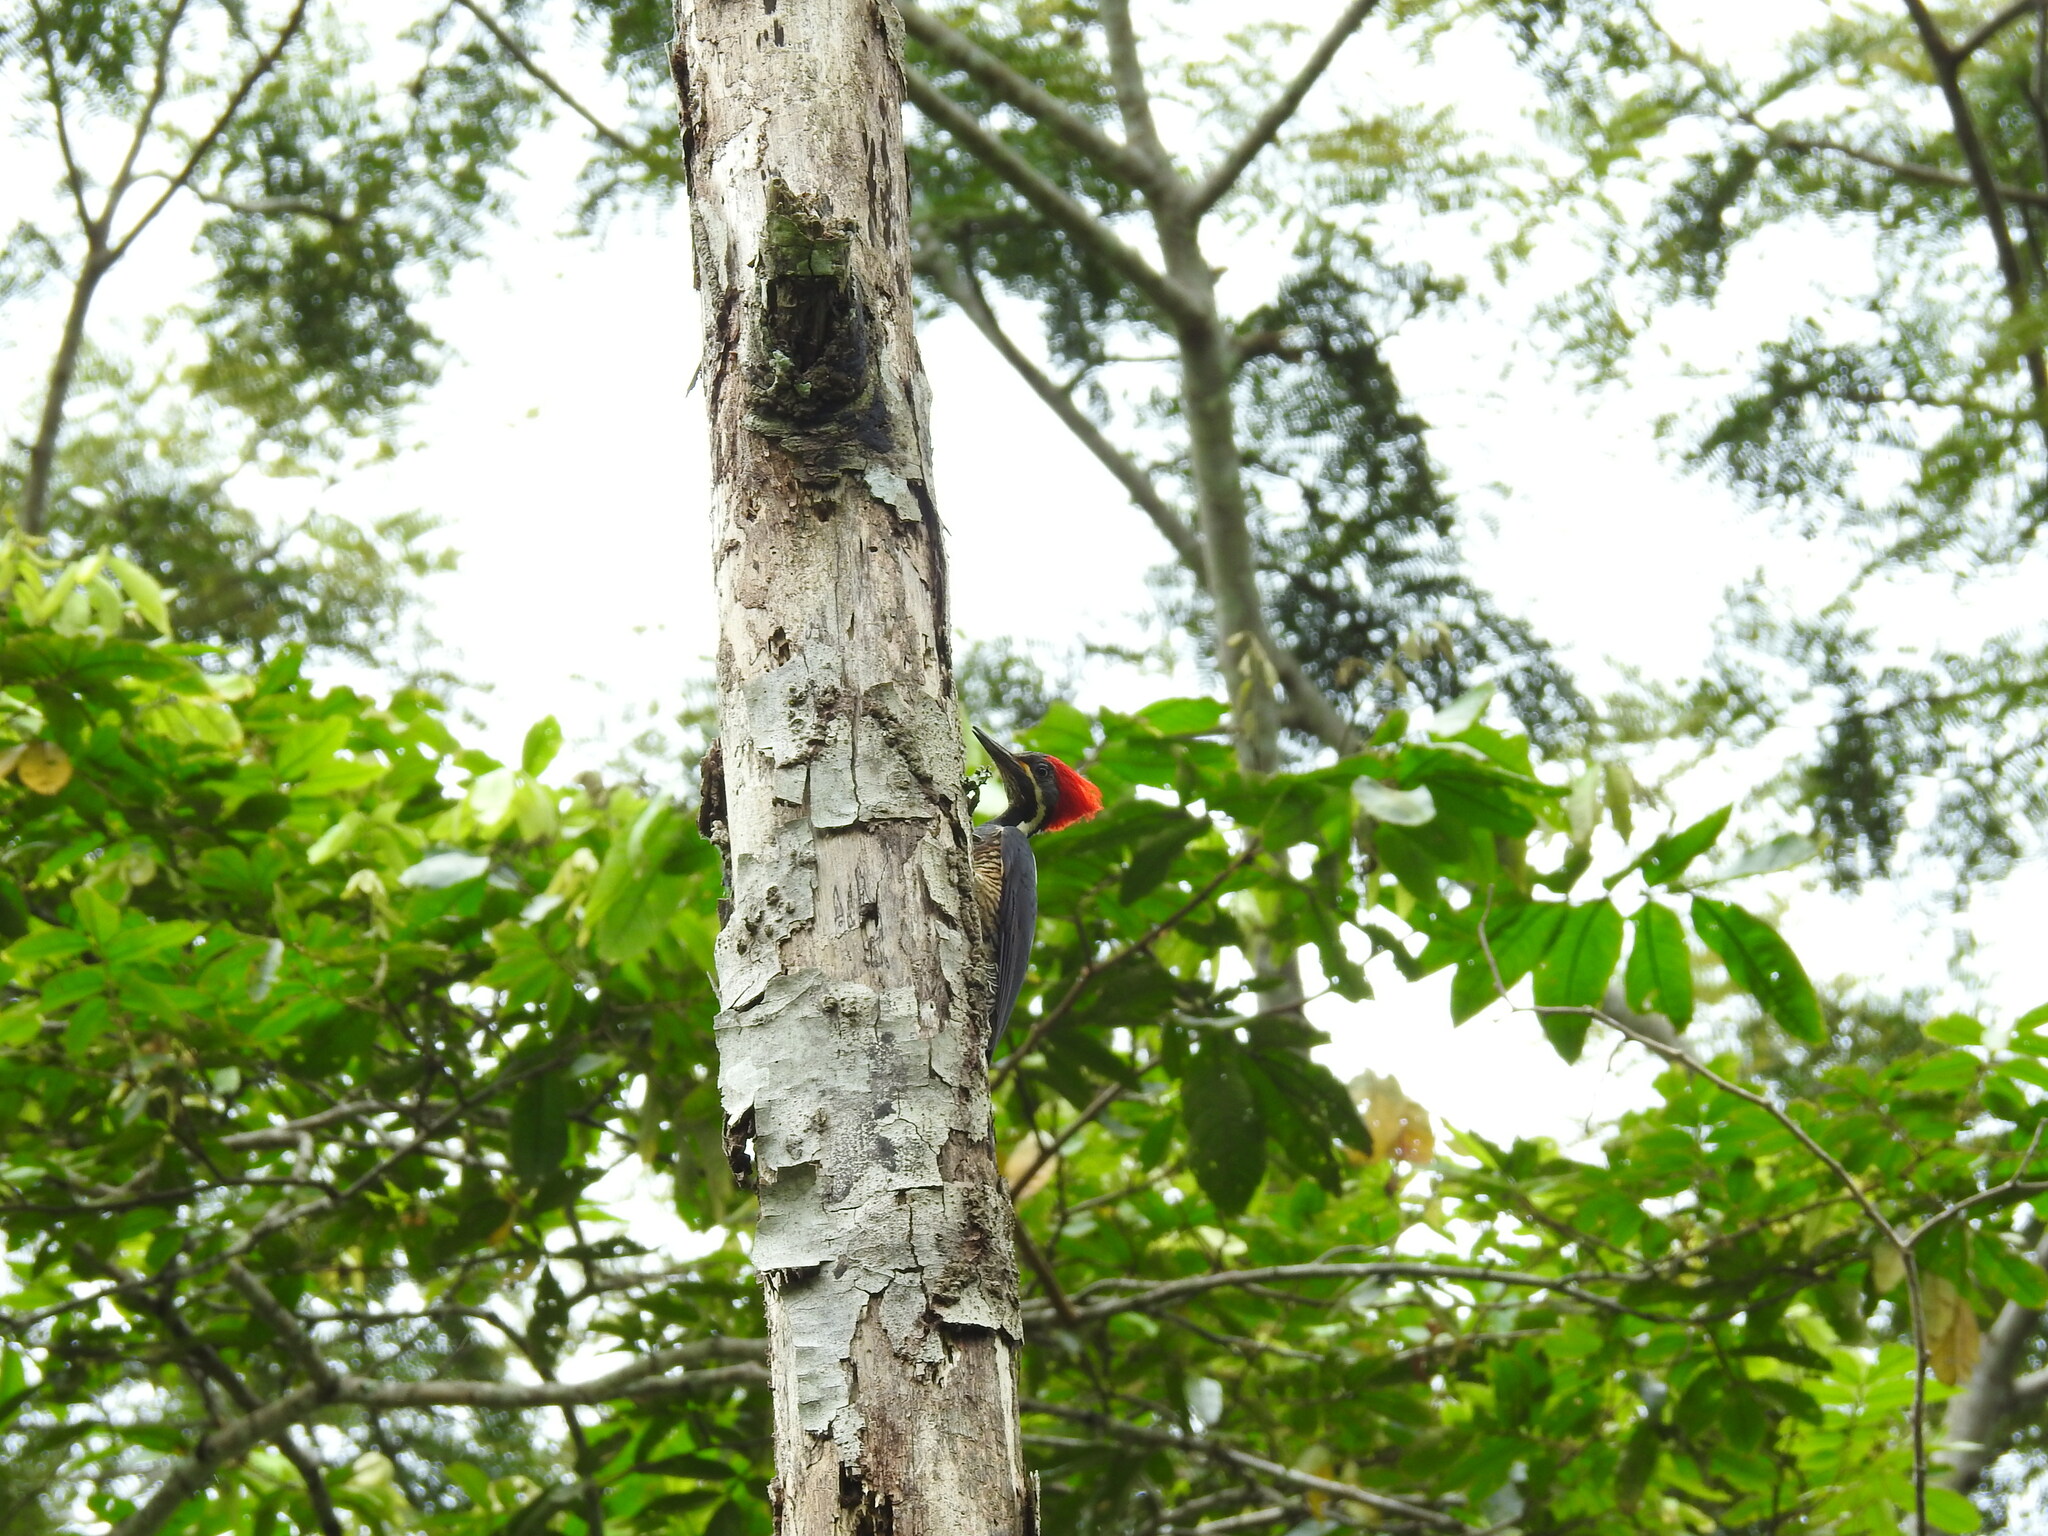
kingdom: Animalia
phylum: Chordata
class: Aves
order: Piciformes
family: Picidae
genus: Dryocopus
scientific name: Dryocopus lineatus
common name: Lineated woodpecker
